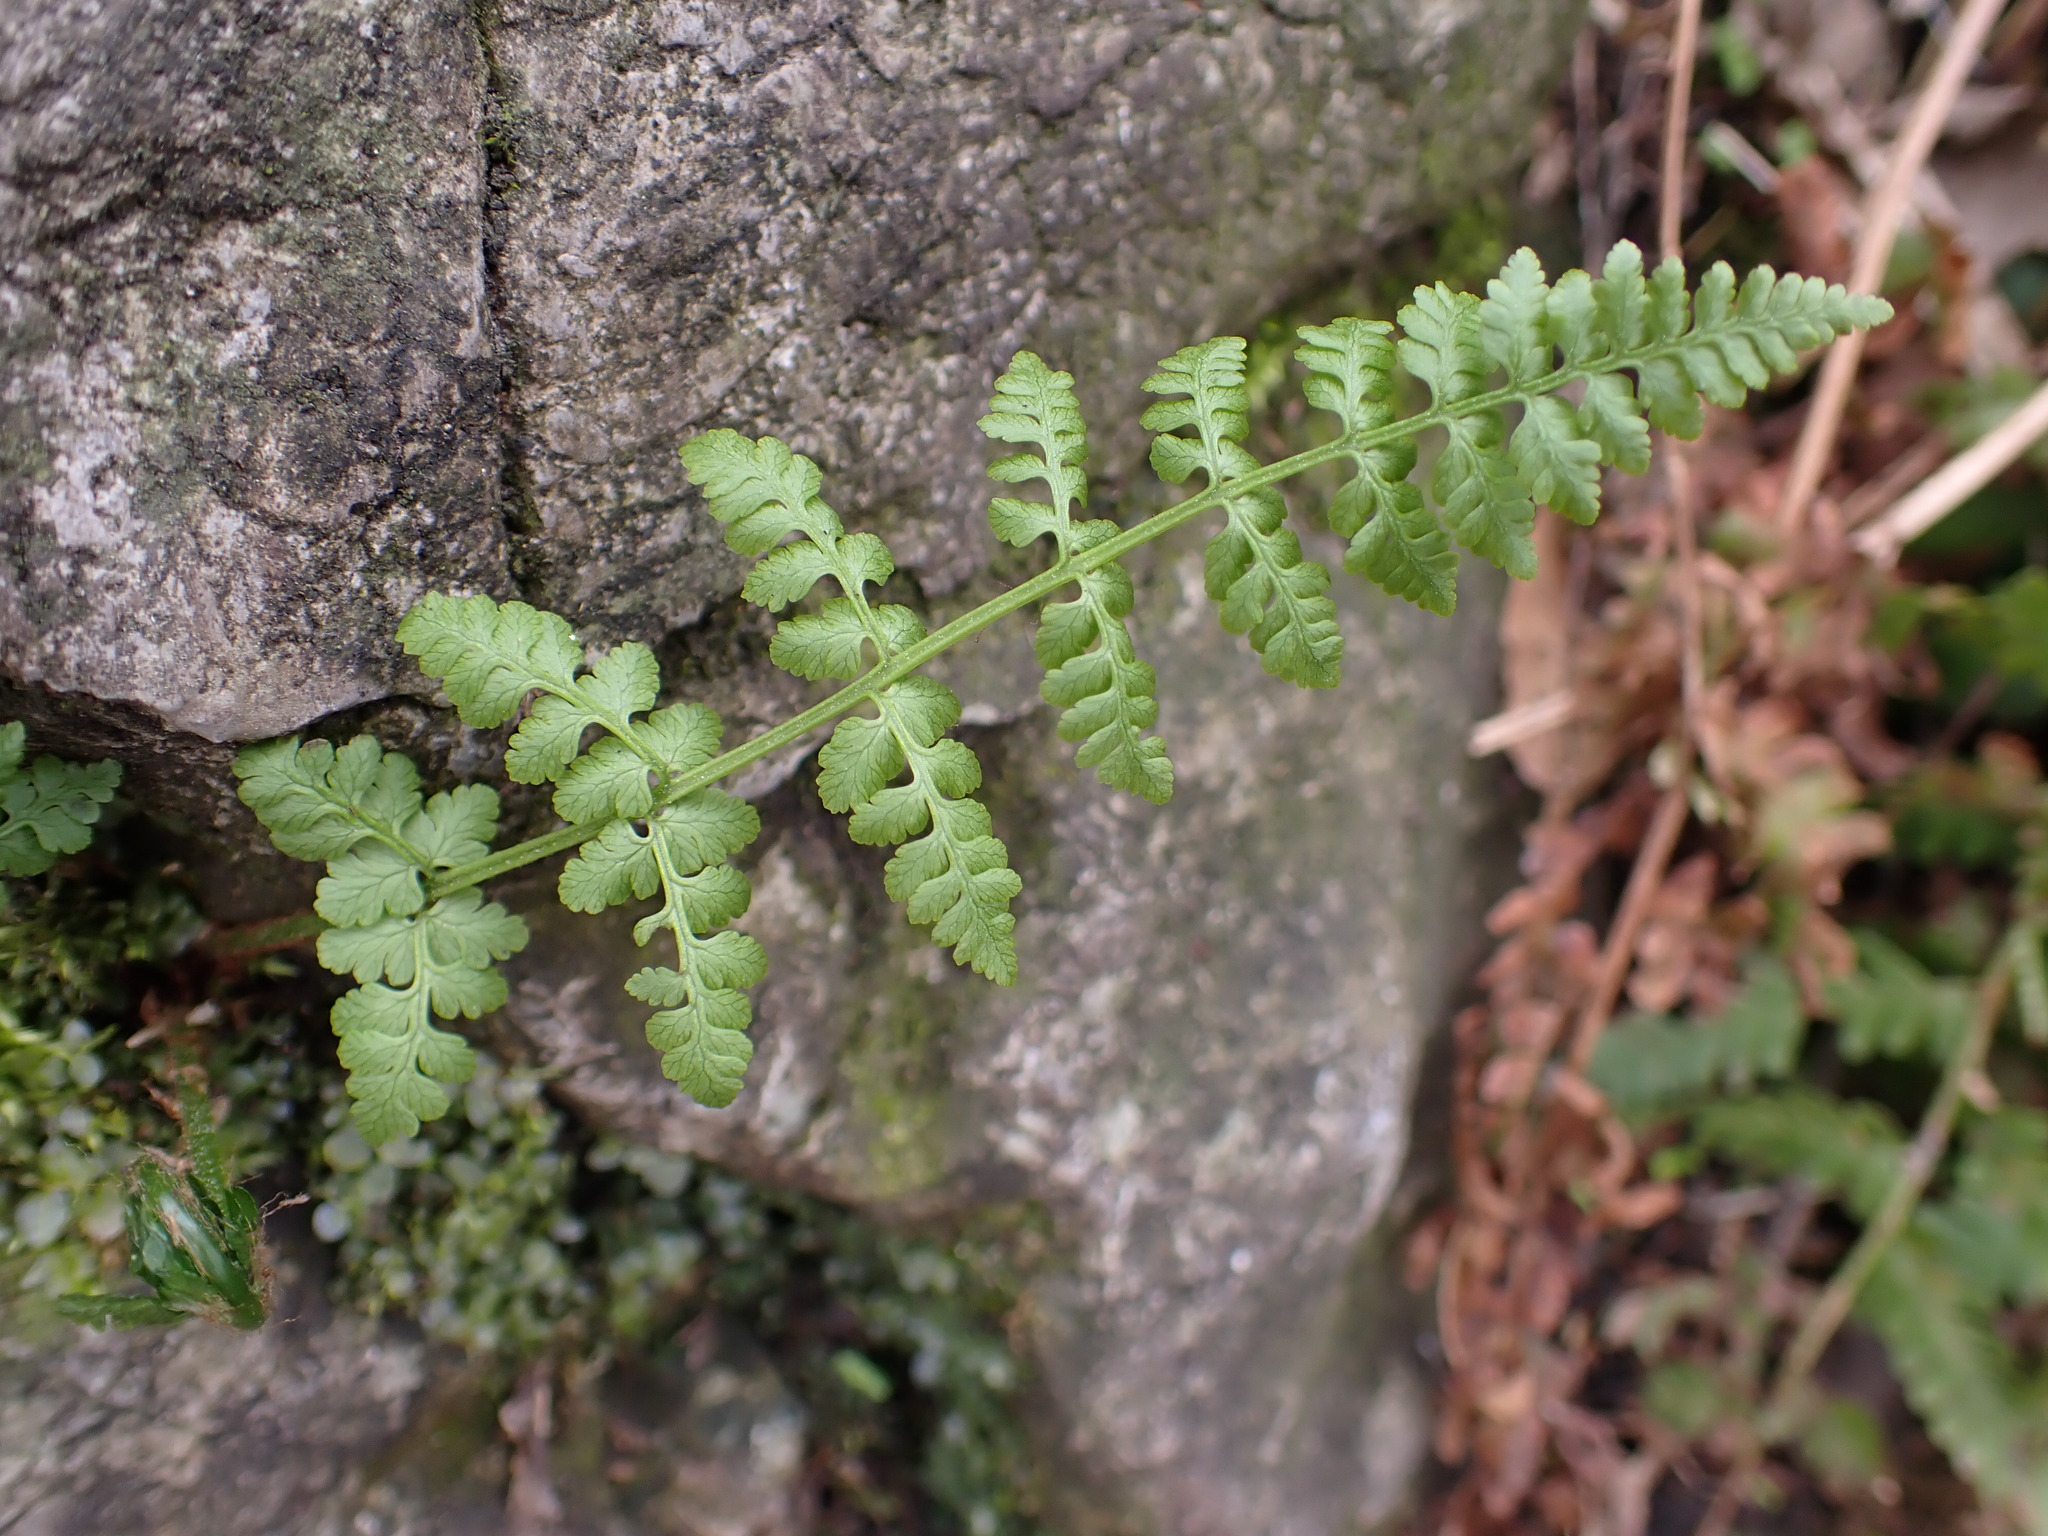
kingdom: Plantae
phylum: Tracheophyta
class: Polypodiopsida
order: Polypodiales
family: Cystopteridaceae
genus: Cystopteris
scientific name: Cystopteris fragilis
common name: Brittle bladder fern
